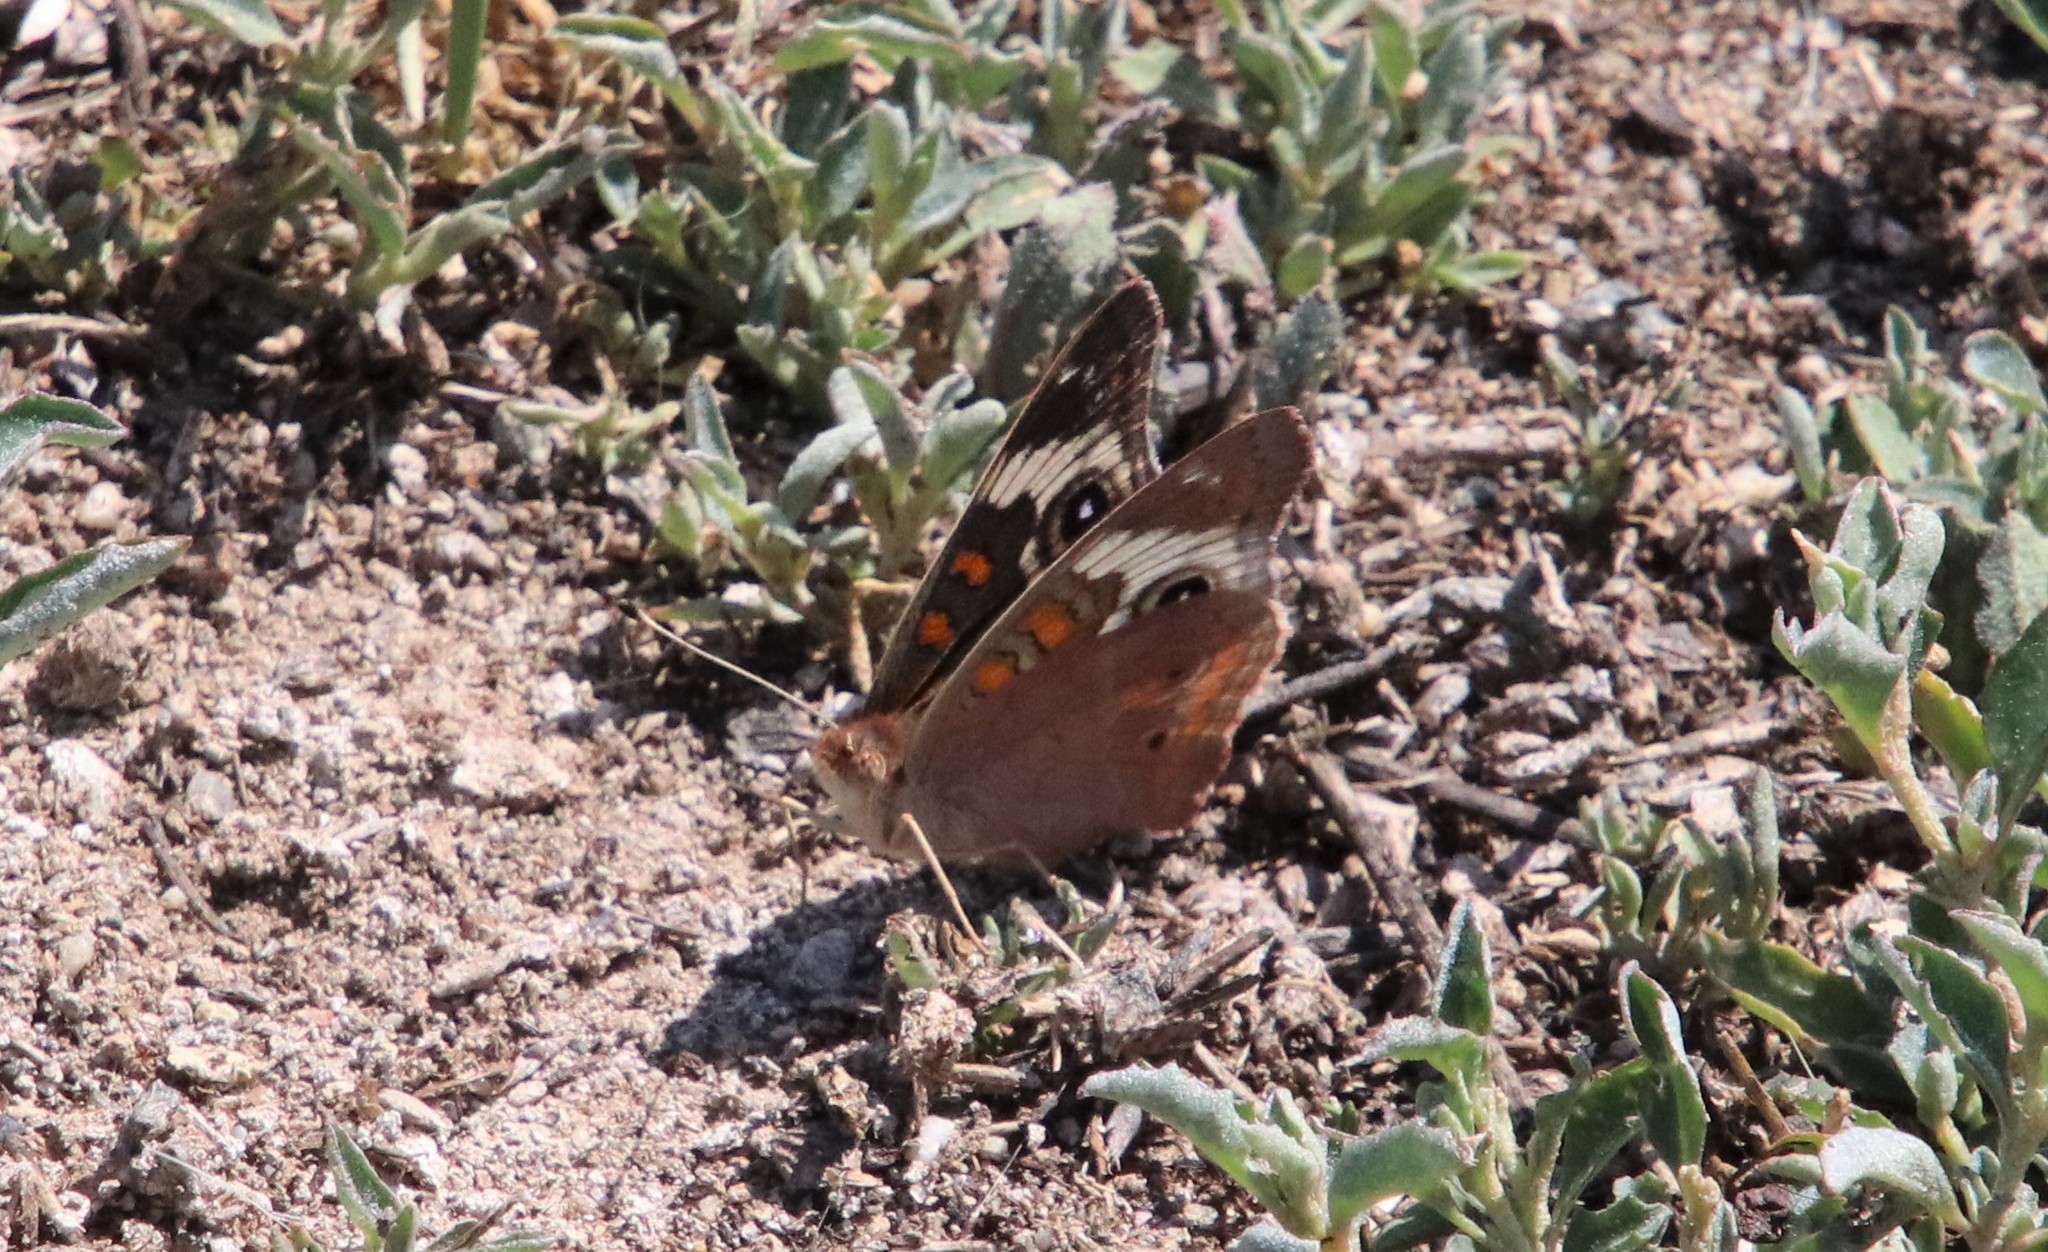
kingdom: Animalia
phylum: Arthropoda
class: Insecta
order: Lepidoptera
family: Nymphalidae
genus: Junonia
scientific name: Junonia grisea
